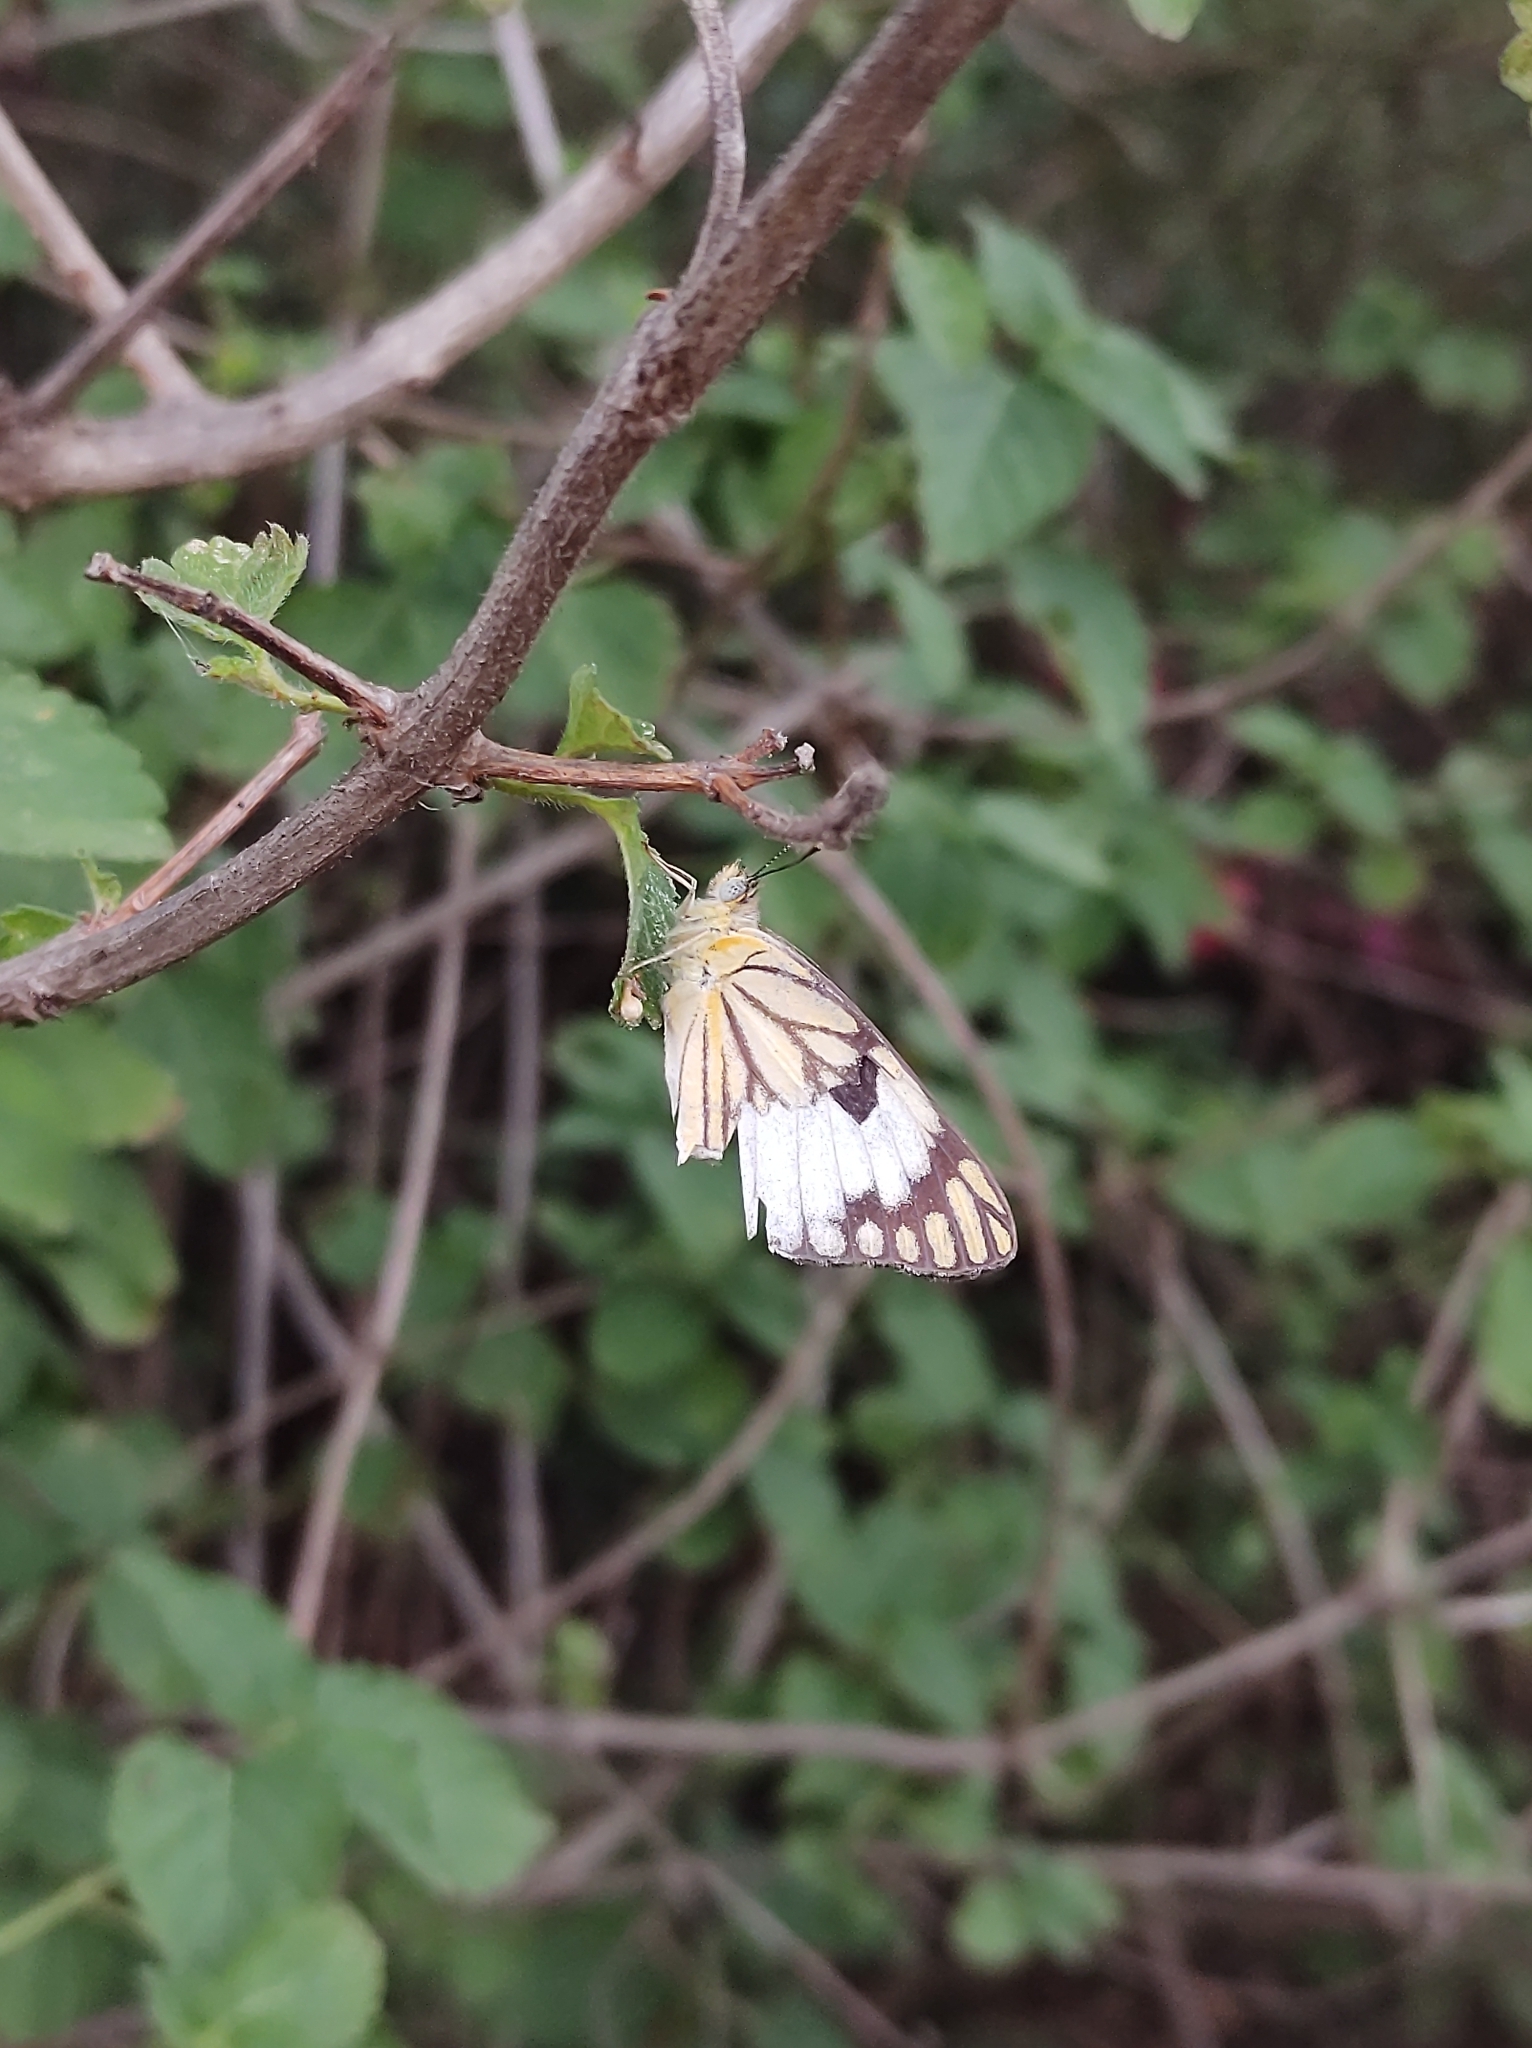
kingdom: Animalia
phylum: Arthropoda
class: Insecta
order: Lepidoptera
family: Pieridae
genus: Belenois
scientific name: Belenois aurota
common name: Brown-veined white
